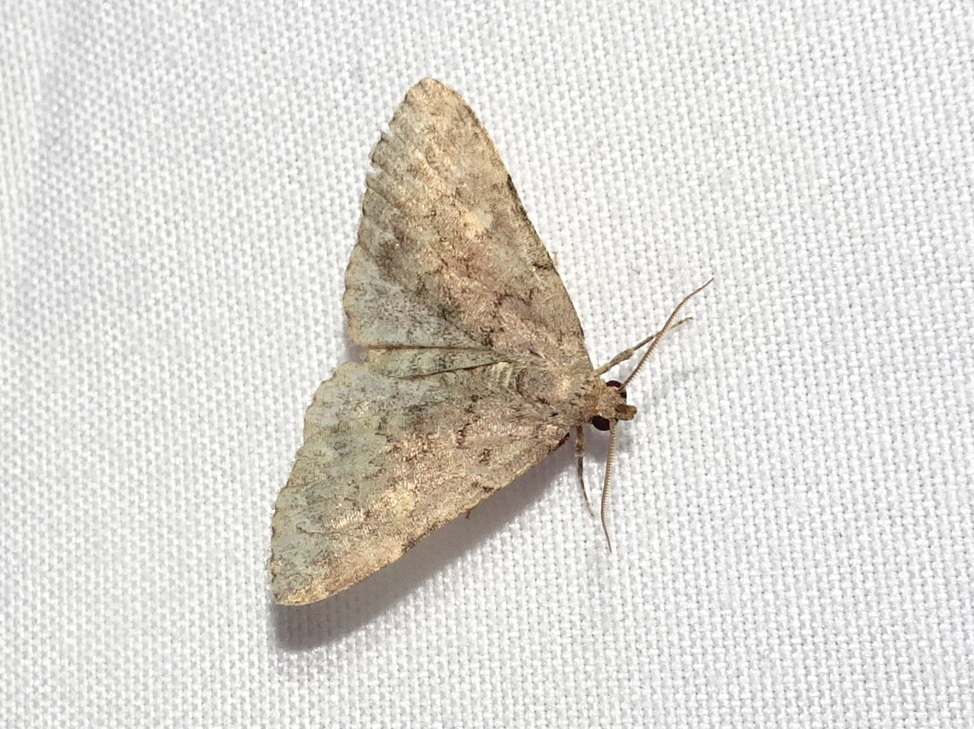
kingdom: Animalia
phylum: Arthropoda
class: Insecta
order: Lepidoptera
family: Erebidae
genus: Idia
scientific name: Idia aemula
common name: Common idia moth
